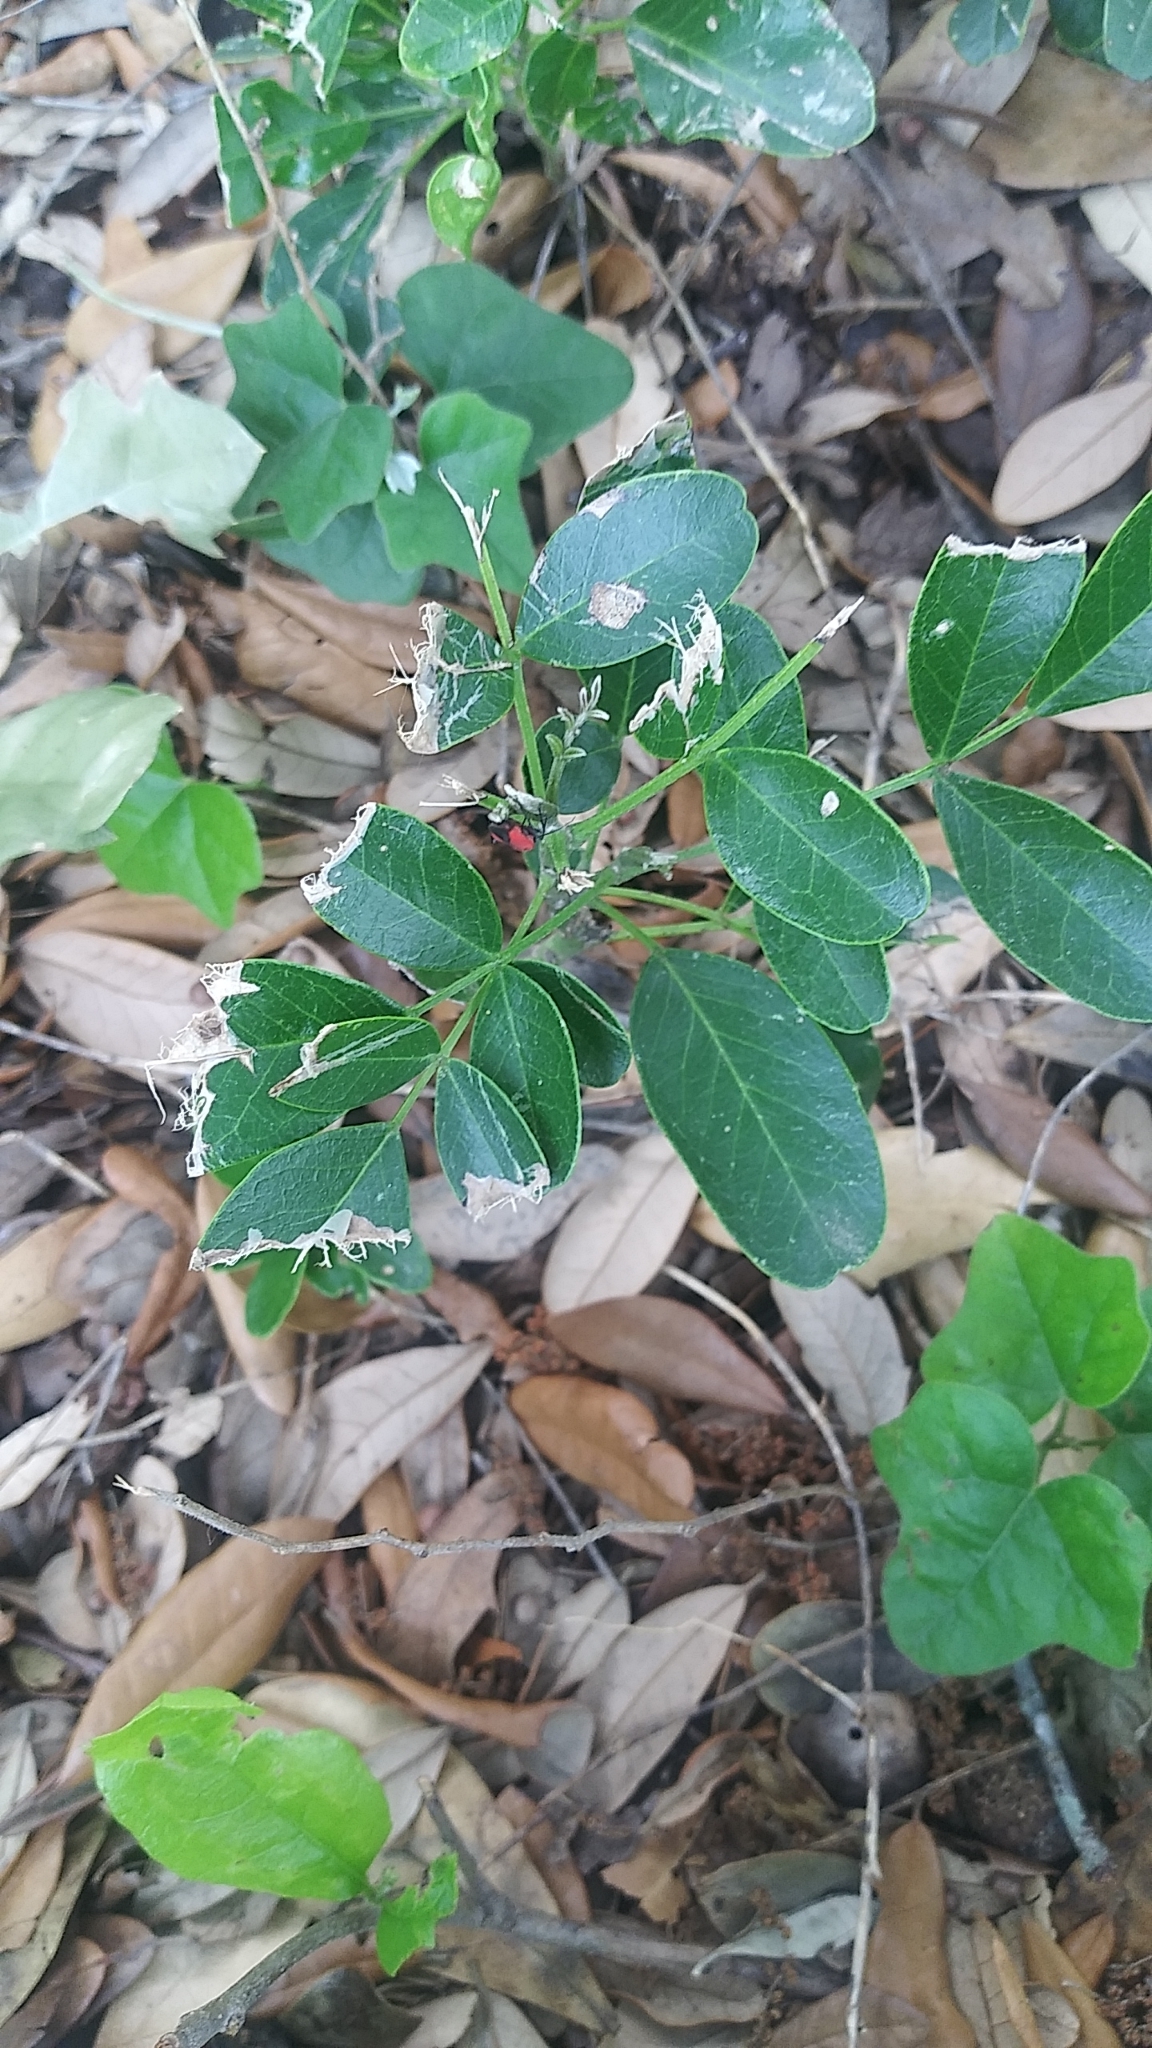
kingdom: Animalia
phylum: Arthropoda
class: Insecta
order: Hemiptera
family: Miridae
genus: Lopidea
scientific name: Lopidea major
